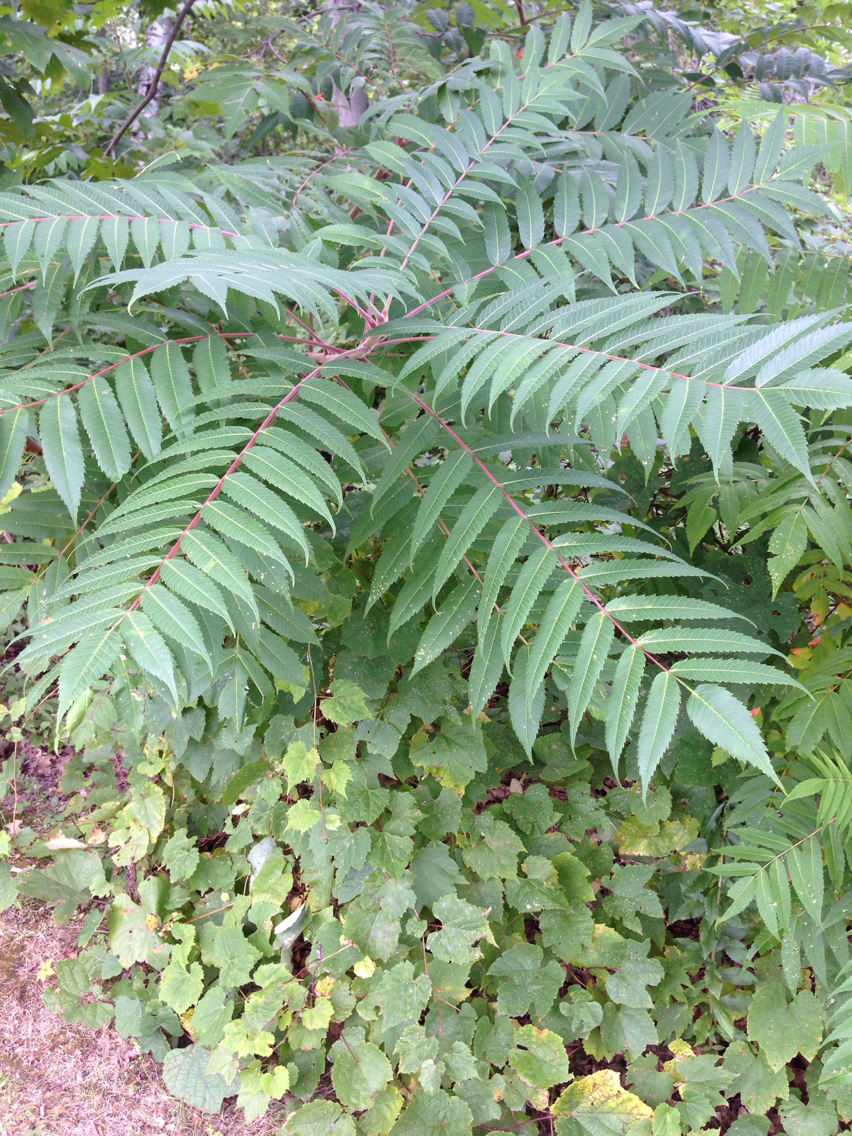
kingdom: Plantae
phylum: Tracheophyta
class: Magnoliopsida
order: Sapindales
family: Anacardiaceae
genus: Rhus
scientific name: Rhus typhina
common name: Staghorn sumac
